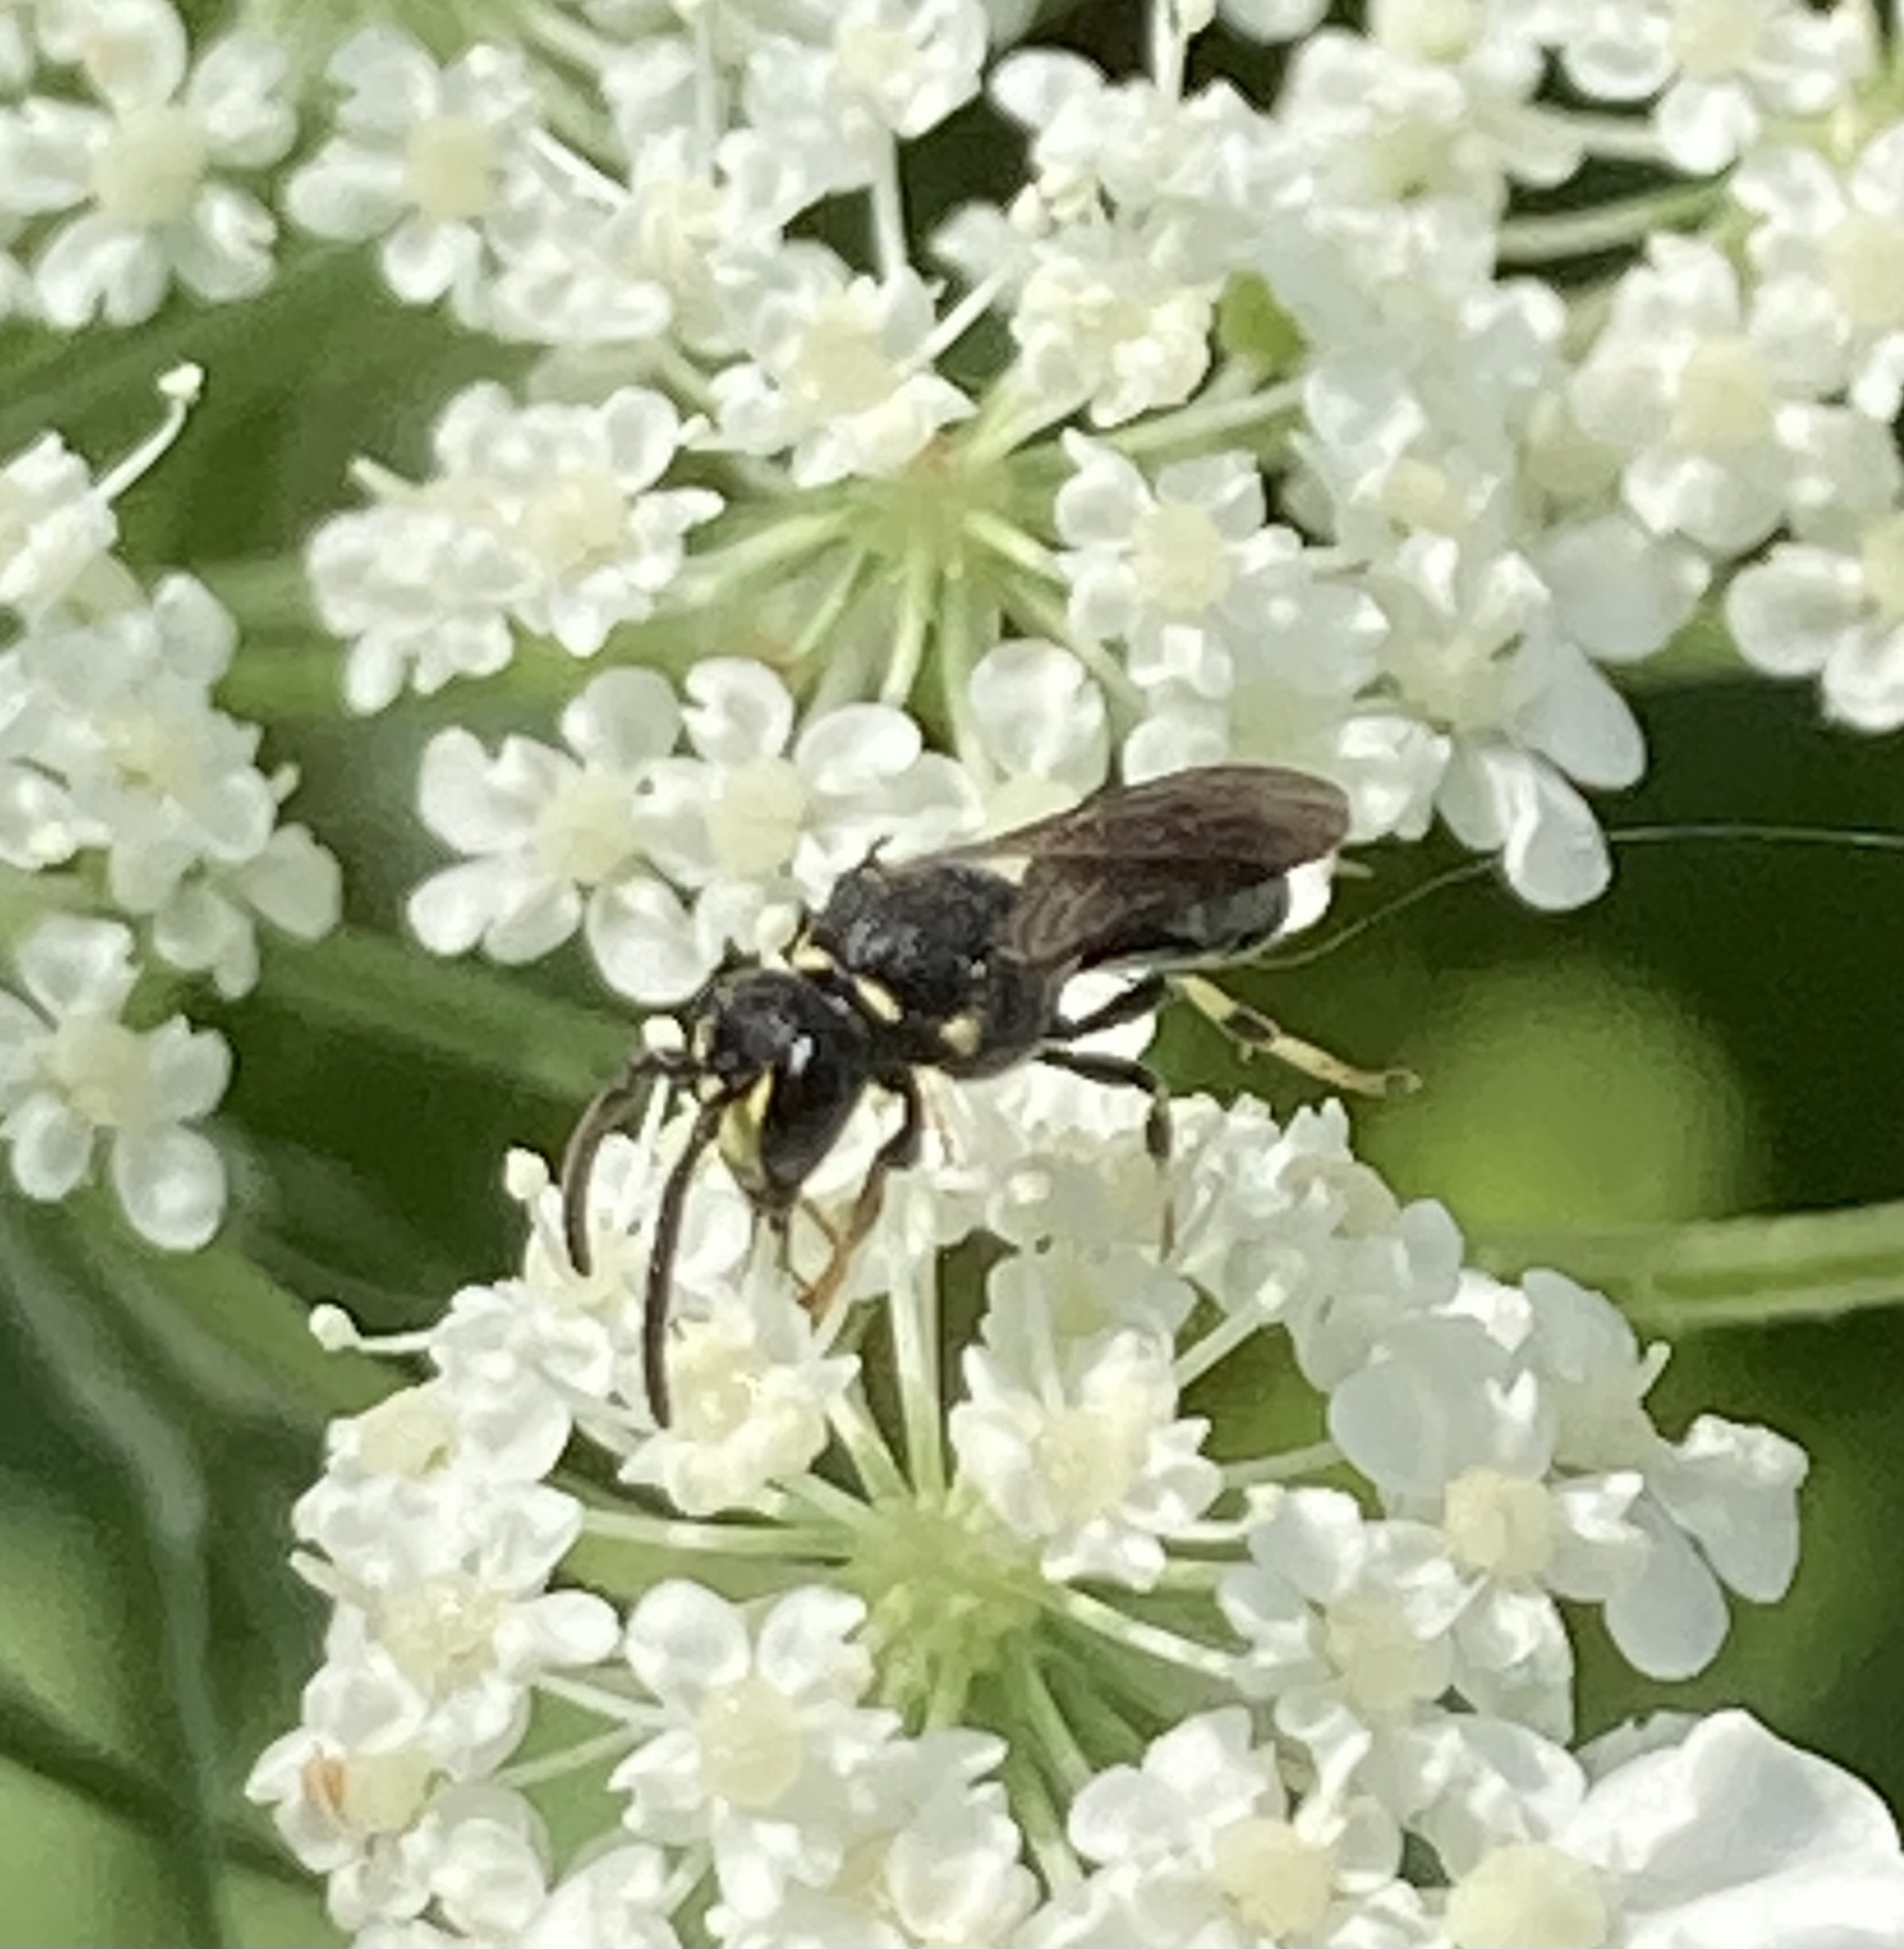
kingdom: Animalia
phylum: Arthropoda
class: Insecta
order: Hymenoptera
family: Colletidae
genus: Hylaeus
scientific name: Hylaeus modestus
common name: Yellow-faced bee
